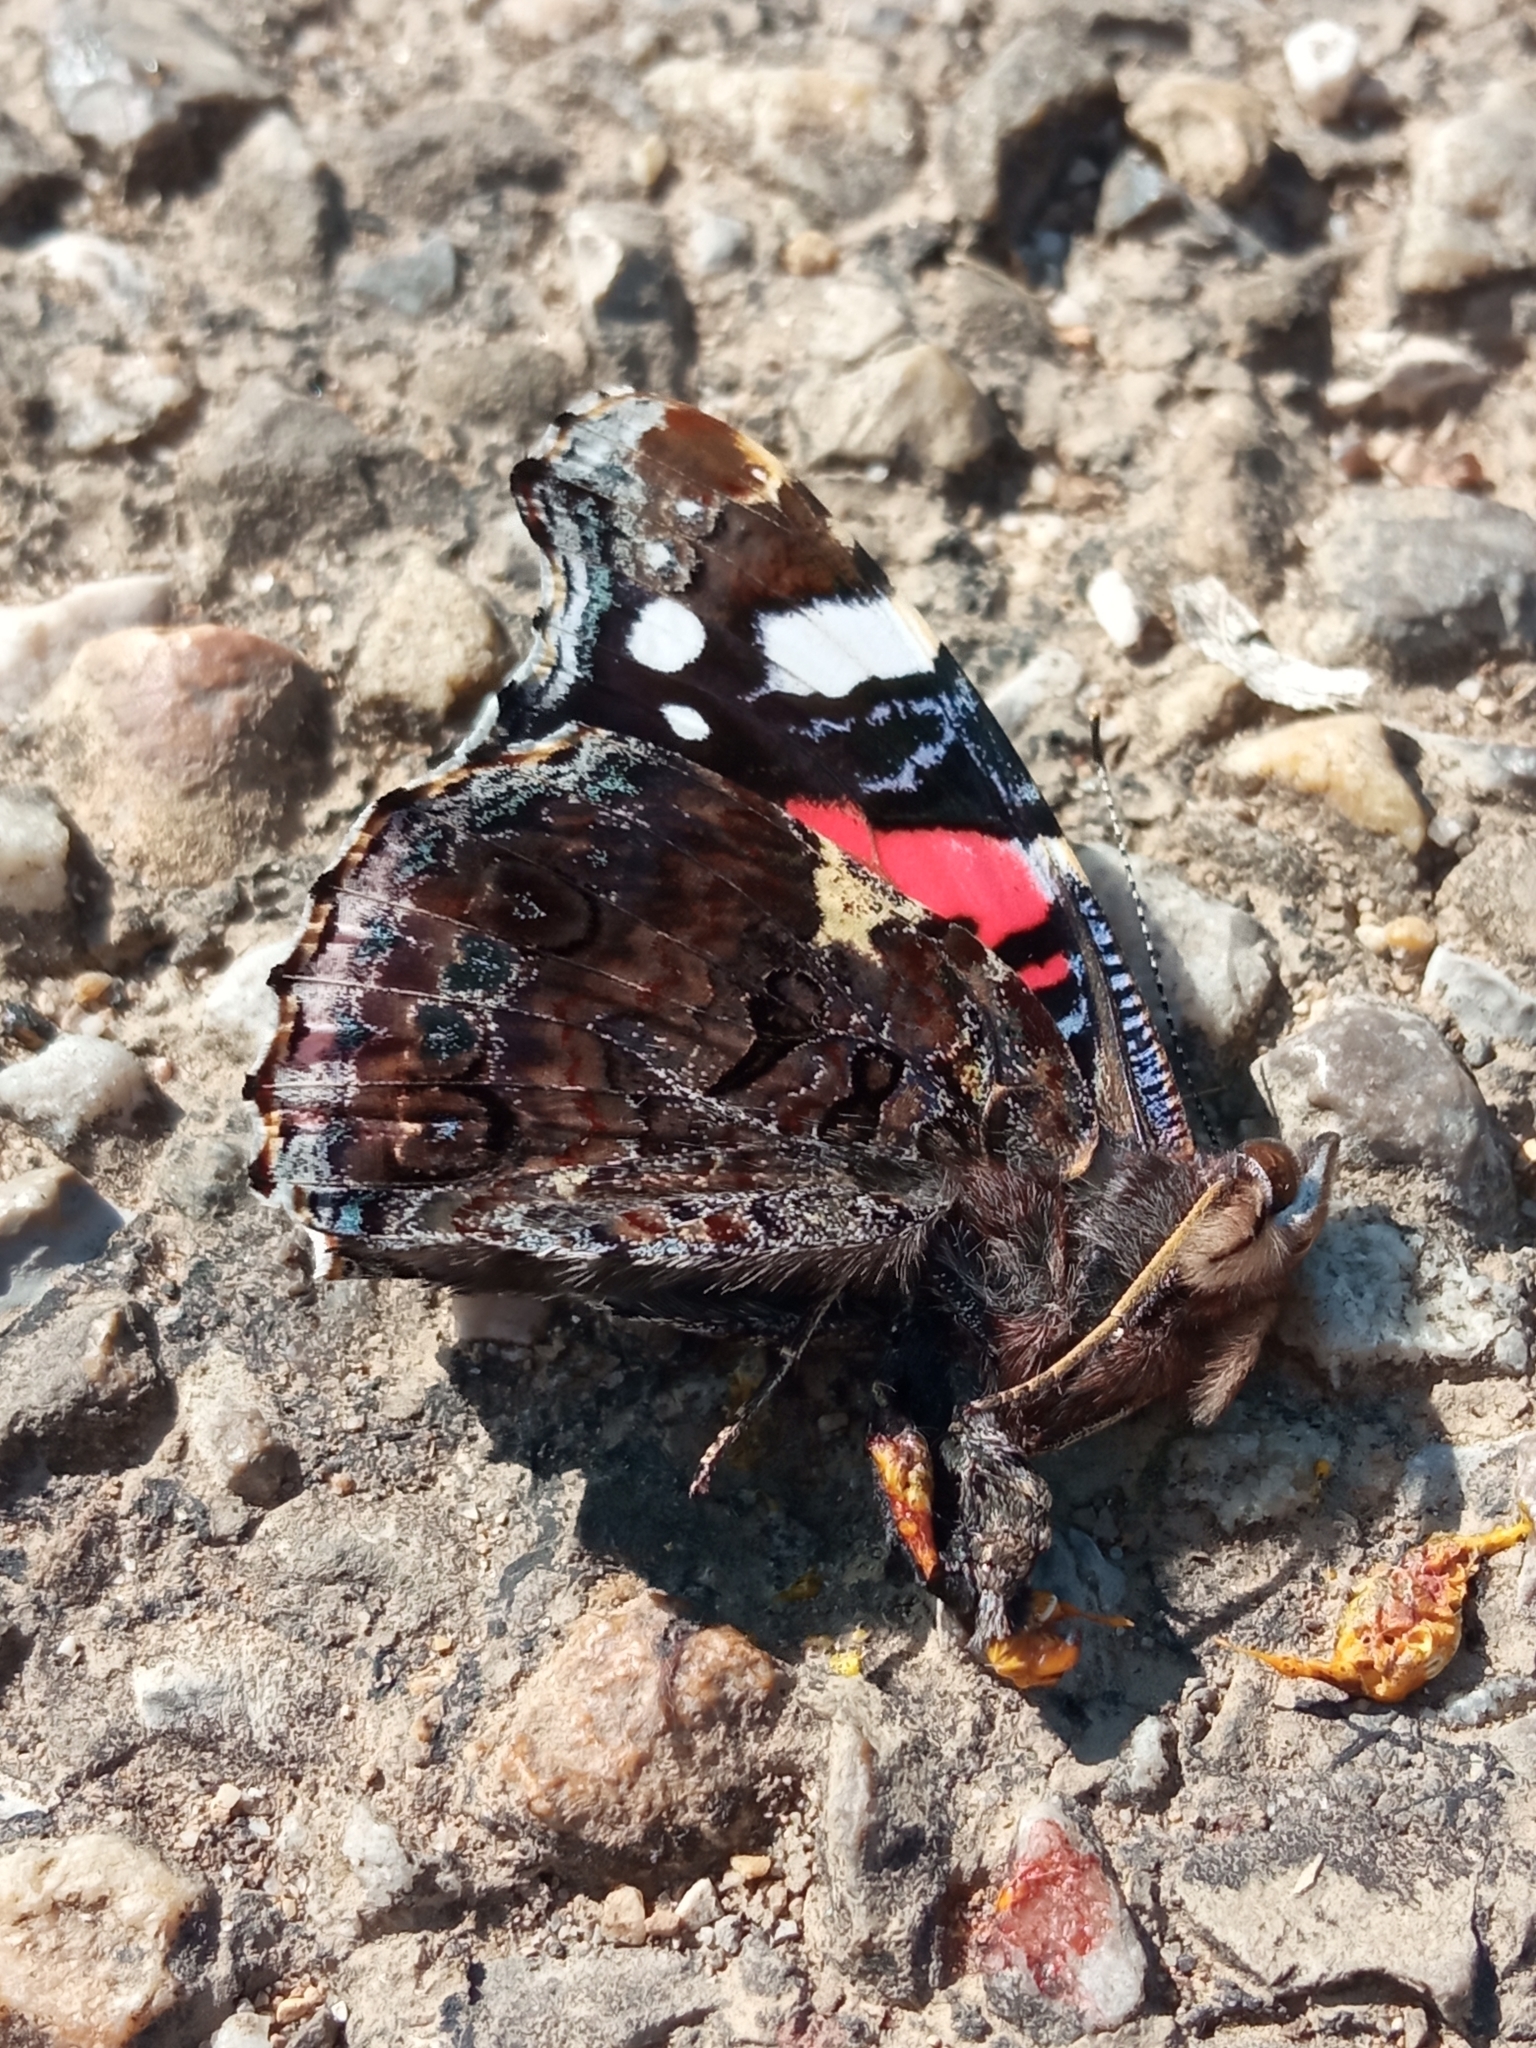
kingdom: Animalia
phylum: Arthropoda
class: Insecta
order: Lepidoptera
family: Nymphalidae
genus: Vanessa
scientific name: Vanessa atalanta
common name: Red admiral
